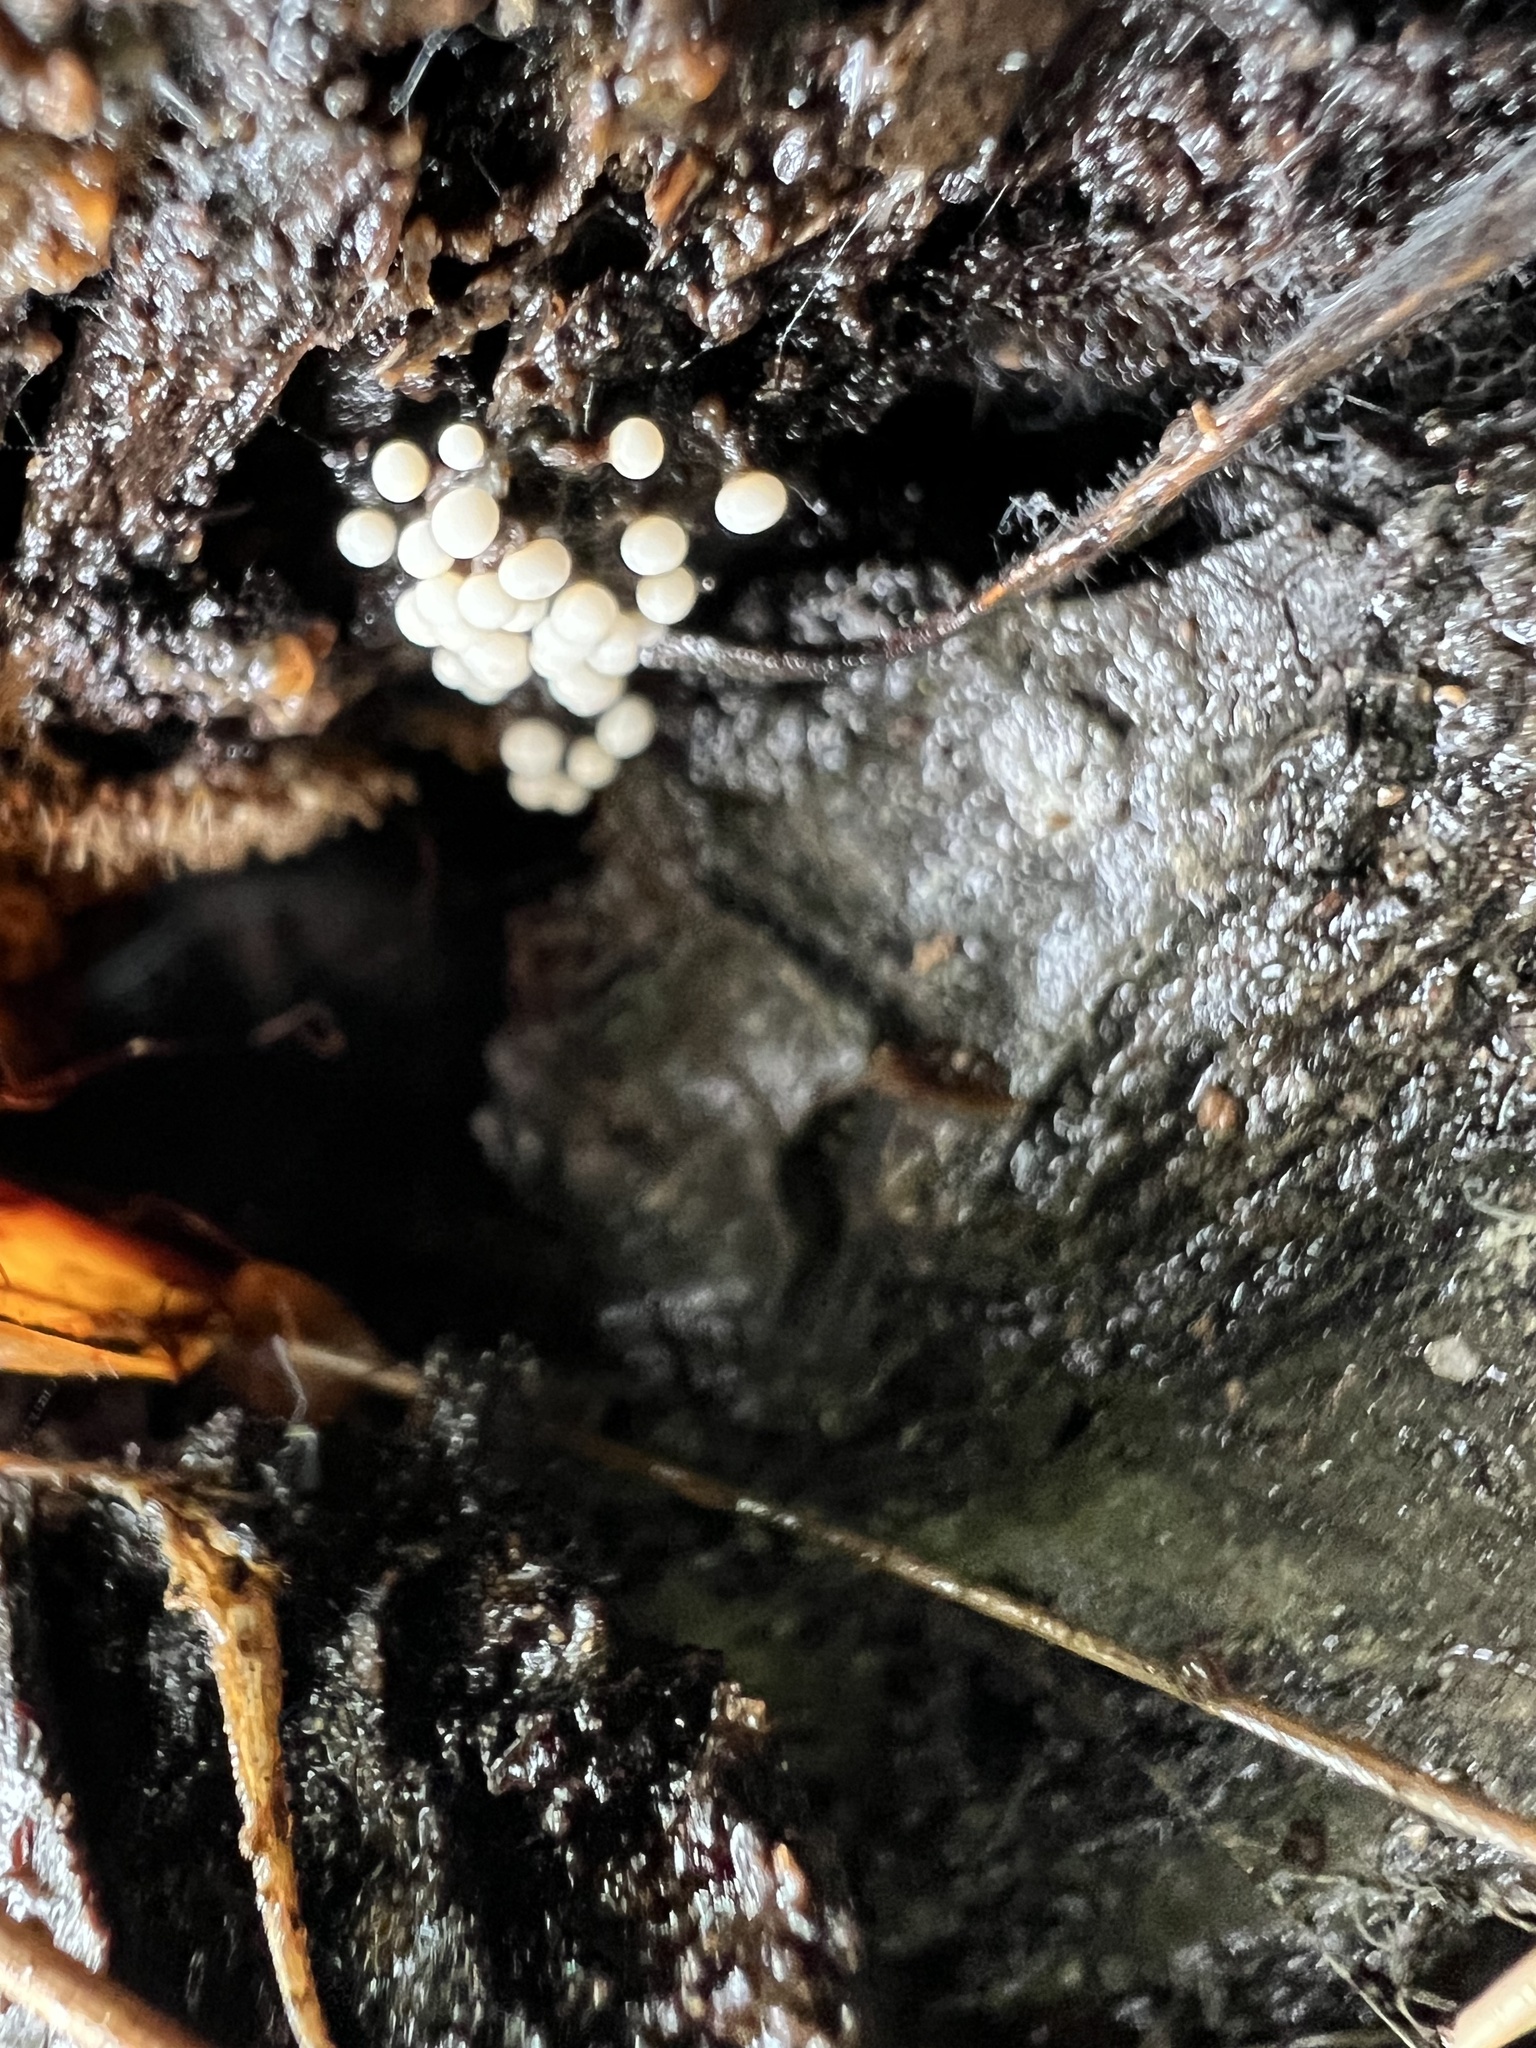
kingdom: Protozoa
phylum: Mycetozoa
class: Myxomycetes
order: Physarales
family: Physaraceae
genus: Physarum
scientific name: Physarum album
